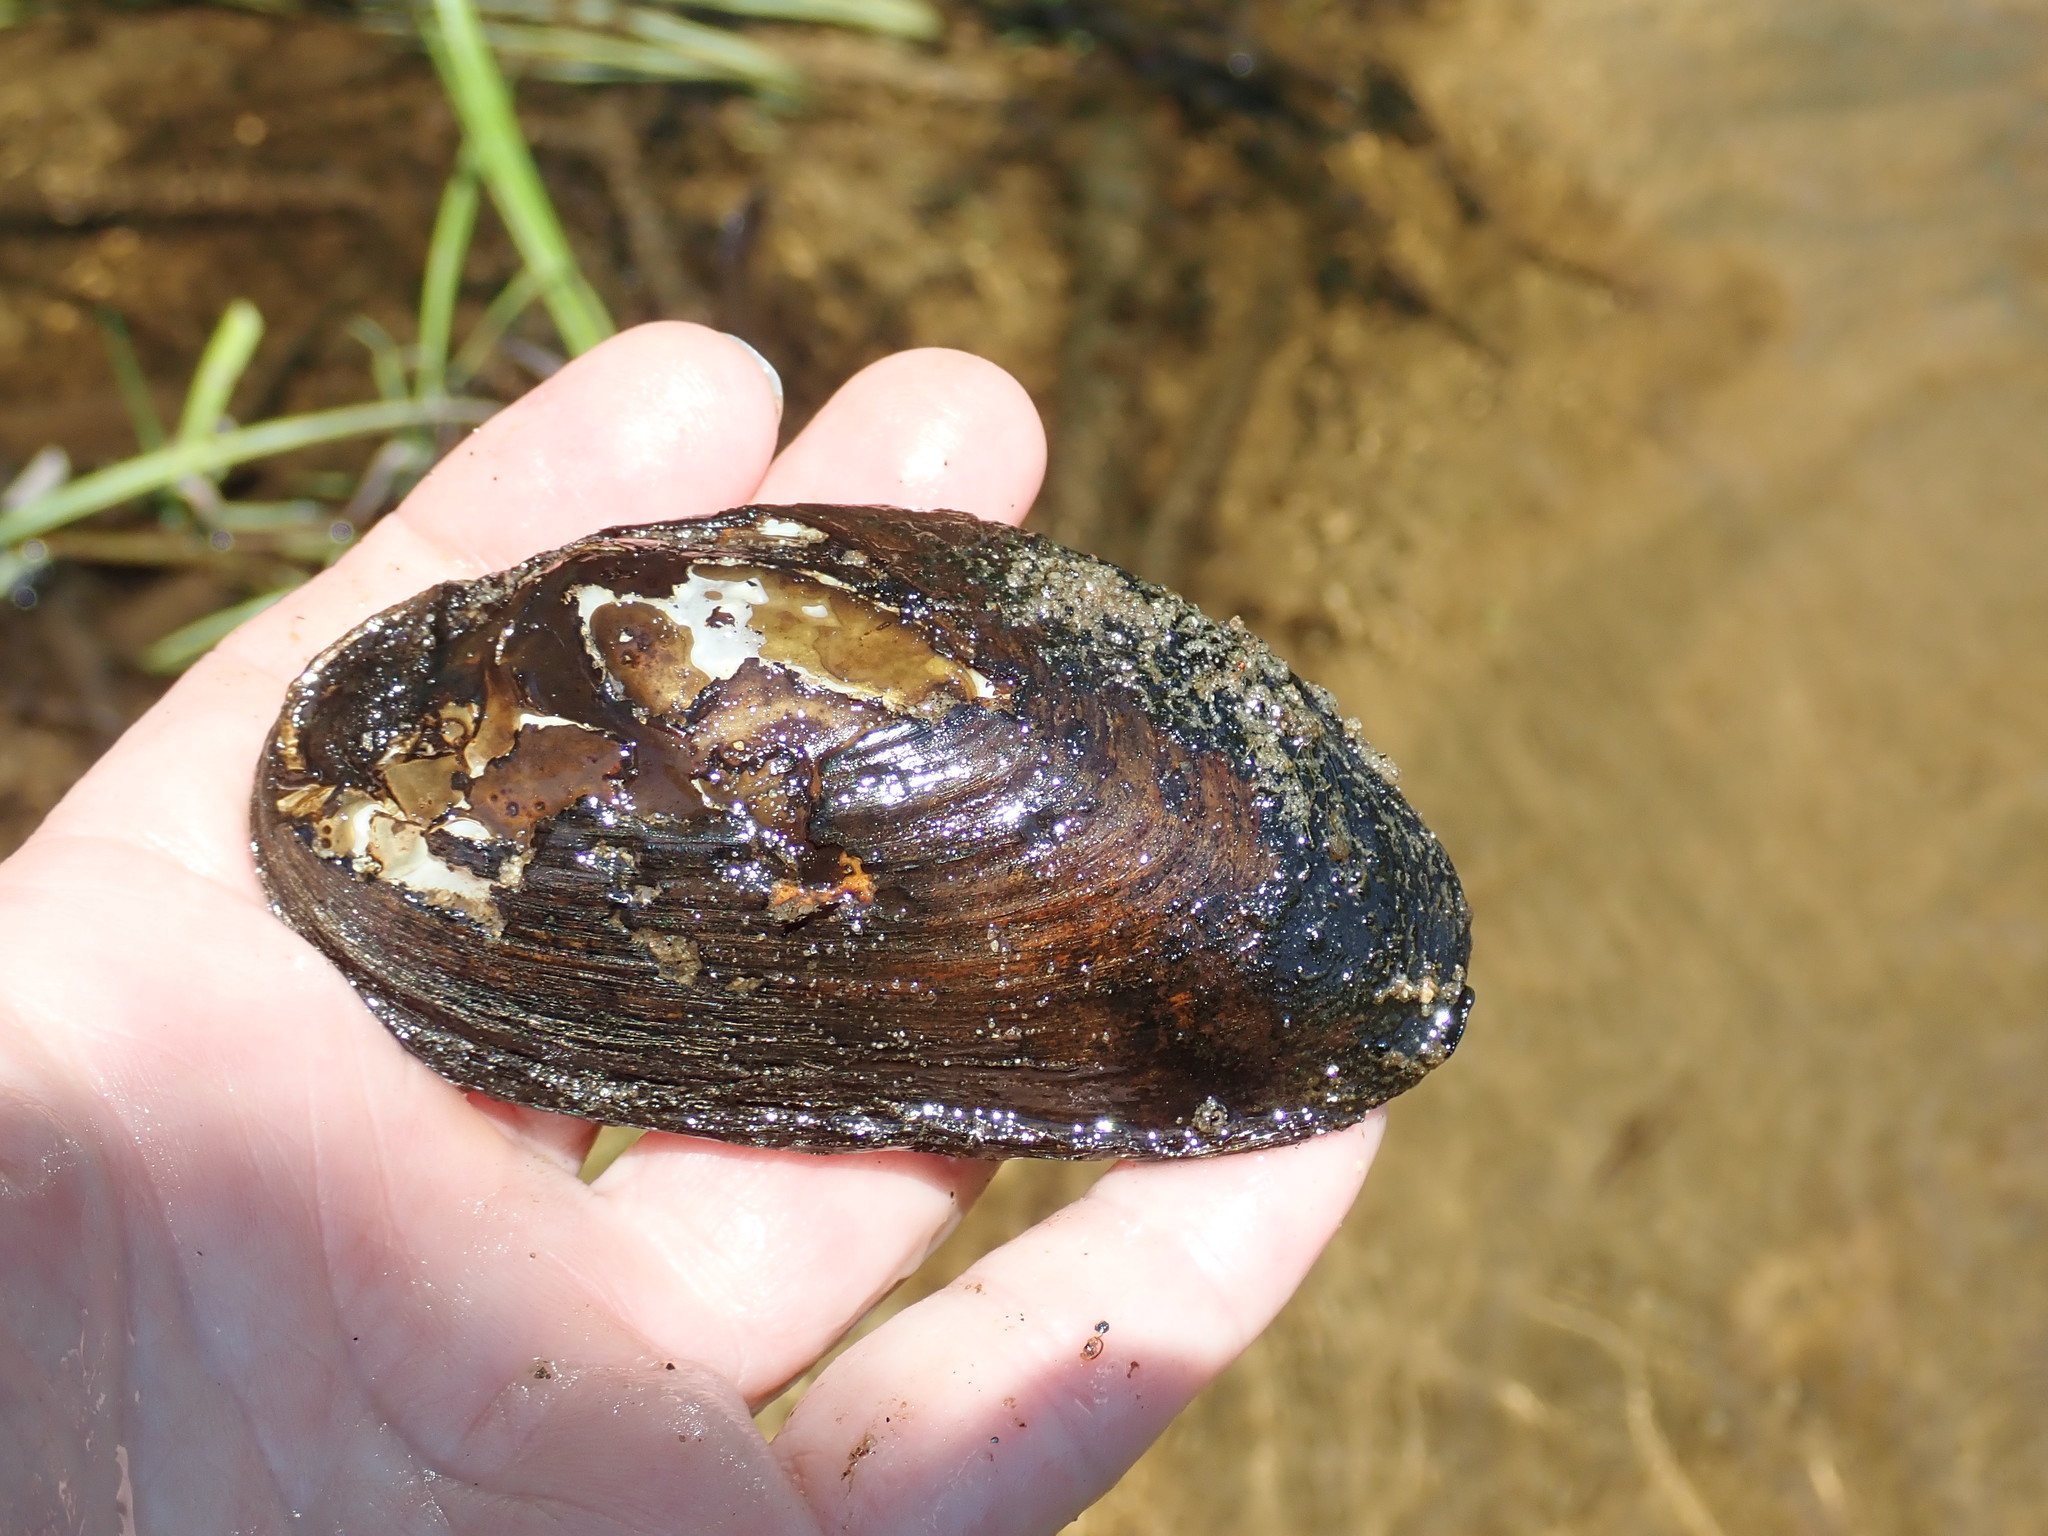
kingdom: Animalia
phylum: Mollusca
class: Bivalvia
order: Unionida
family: Unionidae
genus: Elliptio
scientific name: Elliptio complanata
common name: Eastern elliptio
